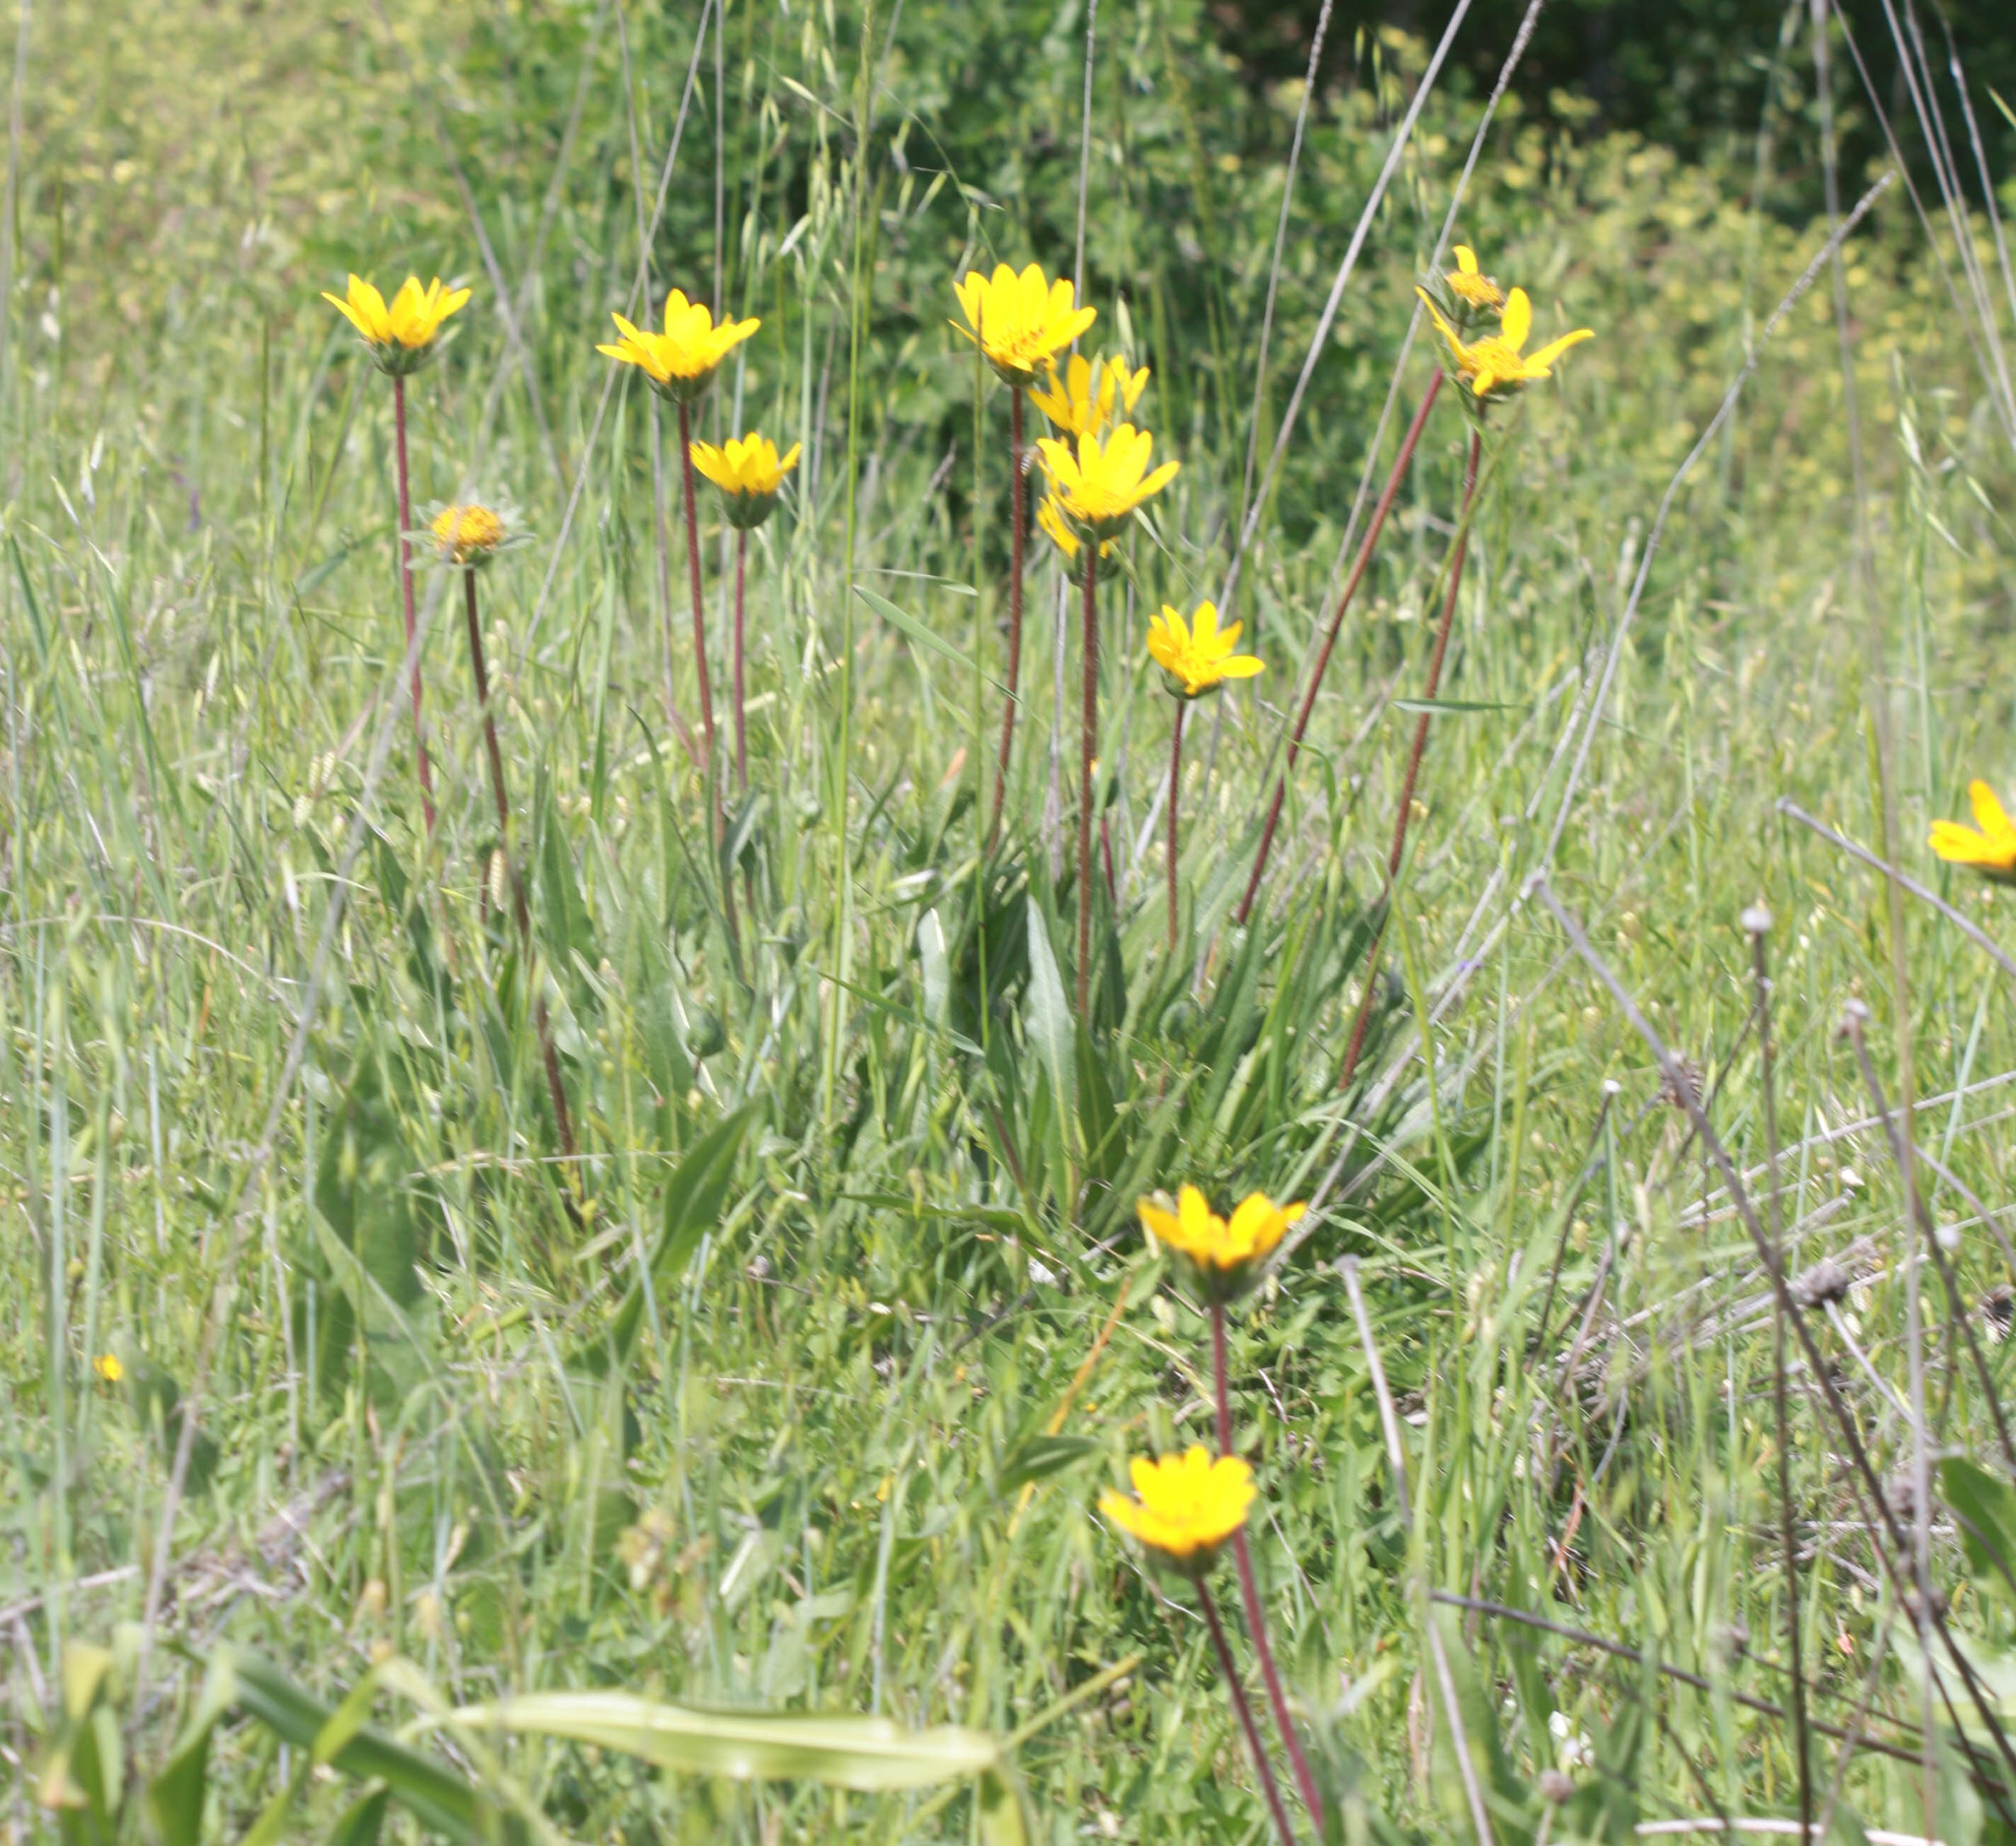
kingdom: Plantae
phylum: Tracheophyta
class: Magnoliopsida
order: Asterales
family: Asteraceae
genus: Wyethia
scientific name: Wyethia angustifolia
